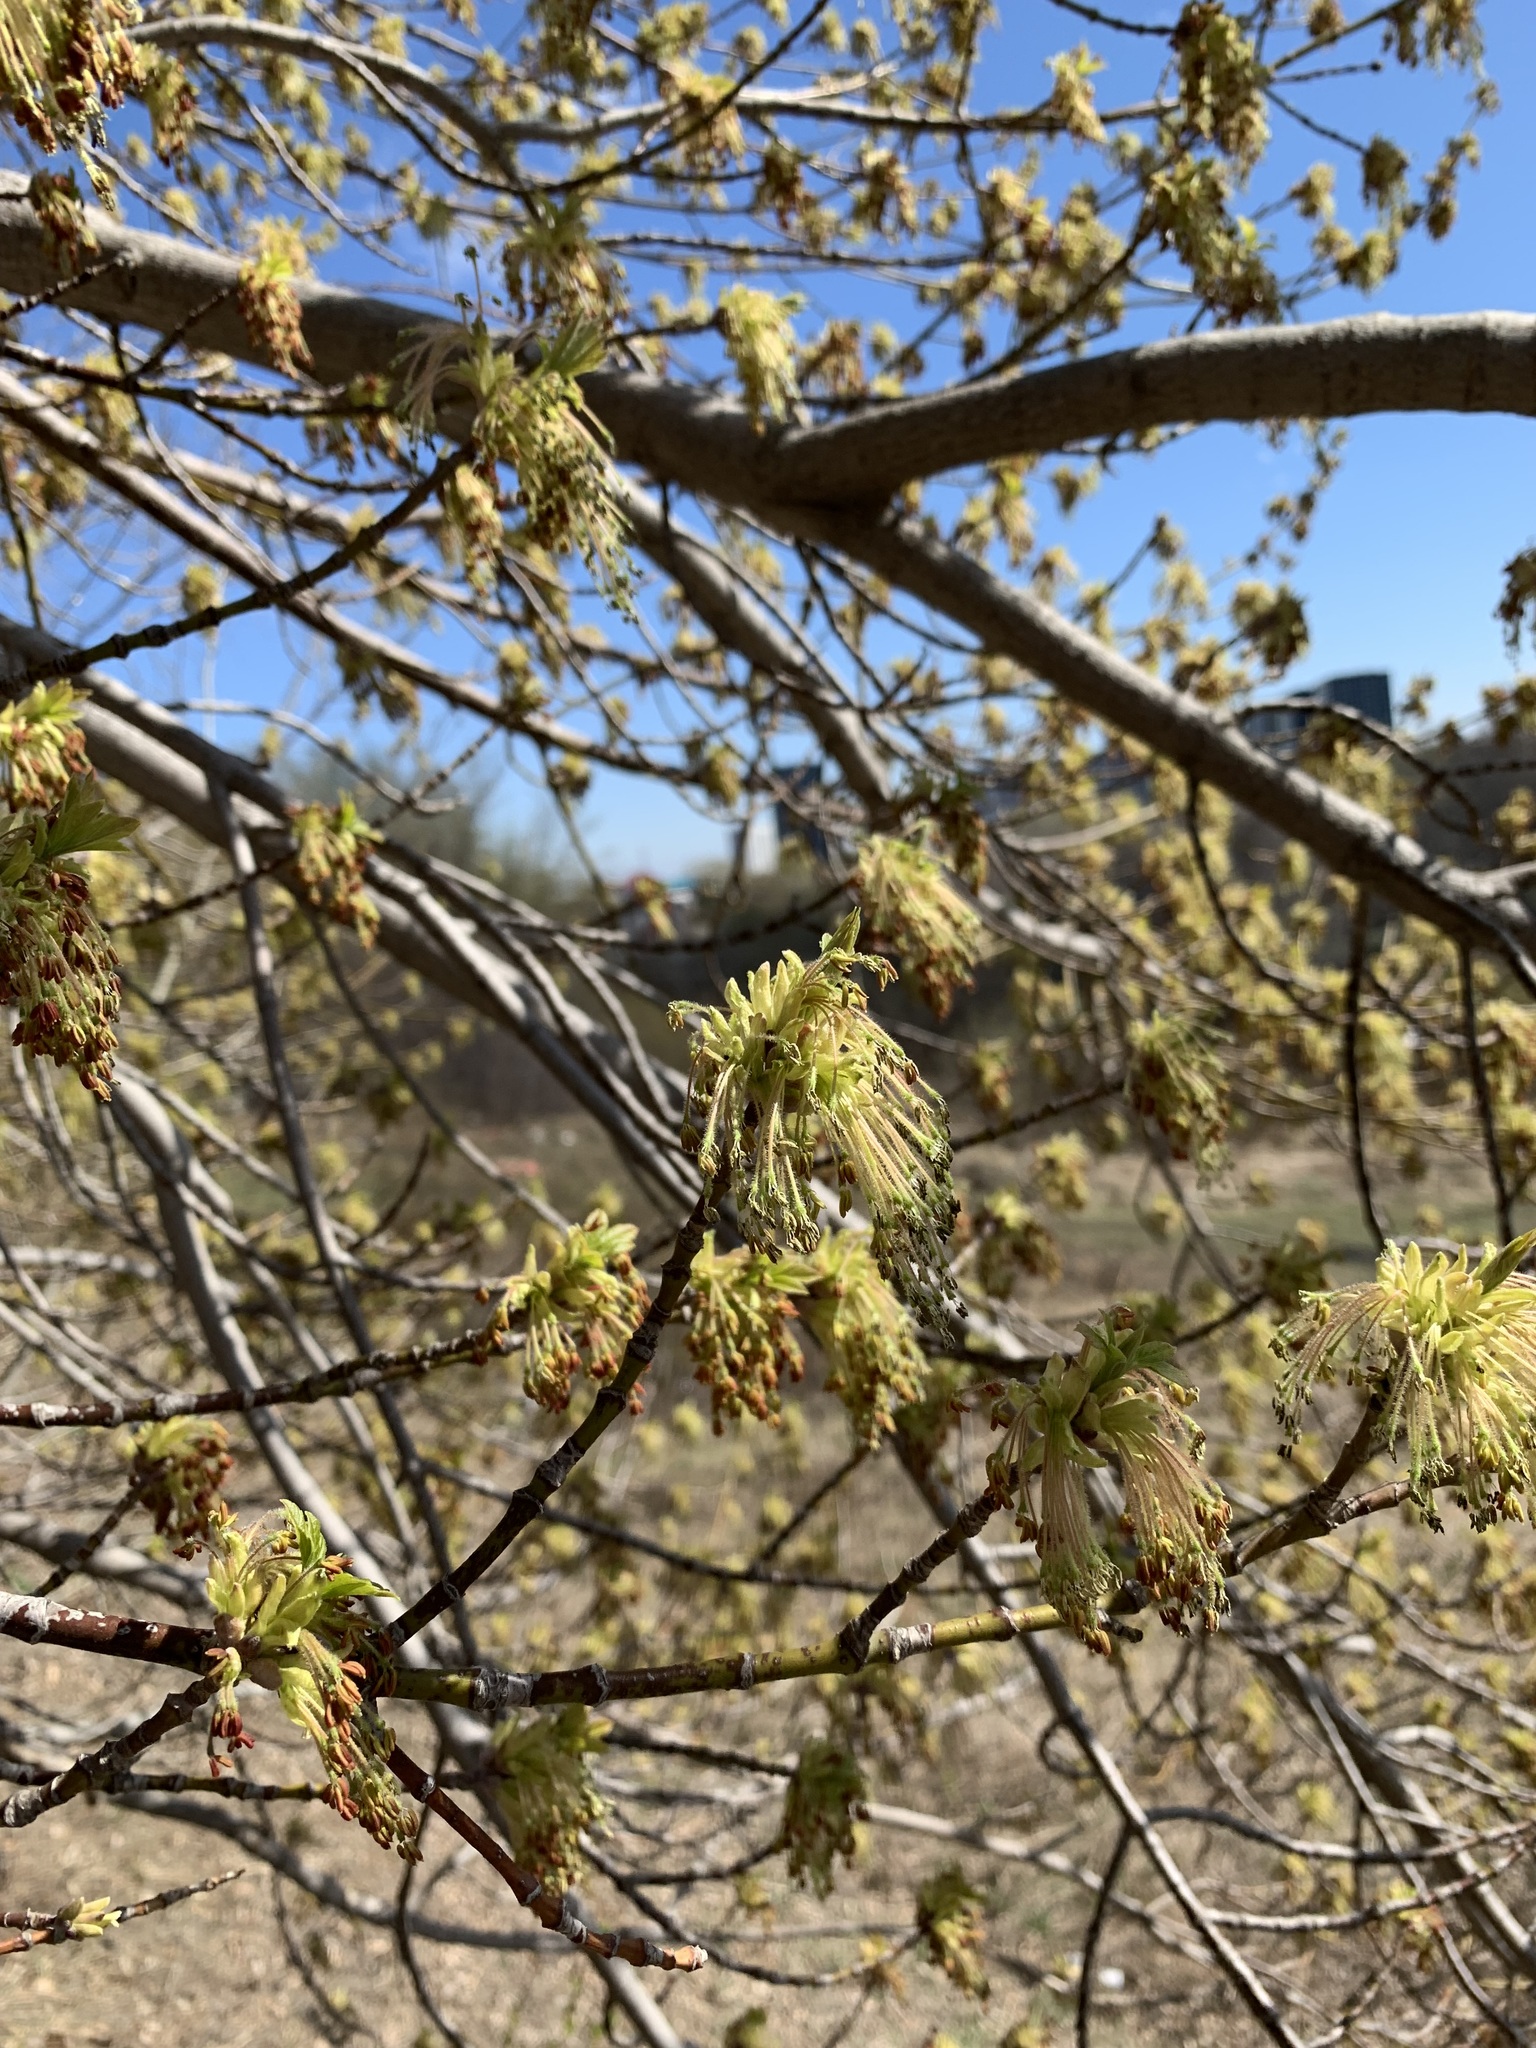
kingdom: Plantae
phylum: Tracheophyta
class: Magnoliopsida
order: Sapindales
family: Sapindaceae
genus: Acer
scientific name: Acer negundo
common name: Ashleaf maple
